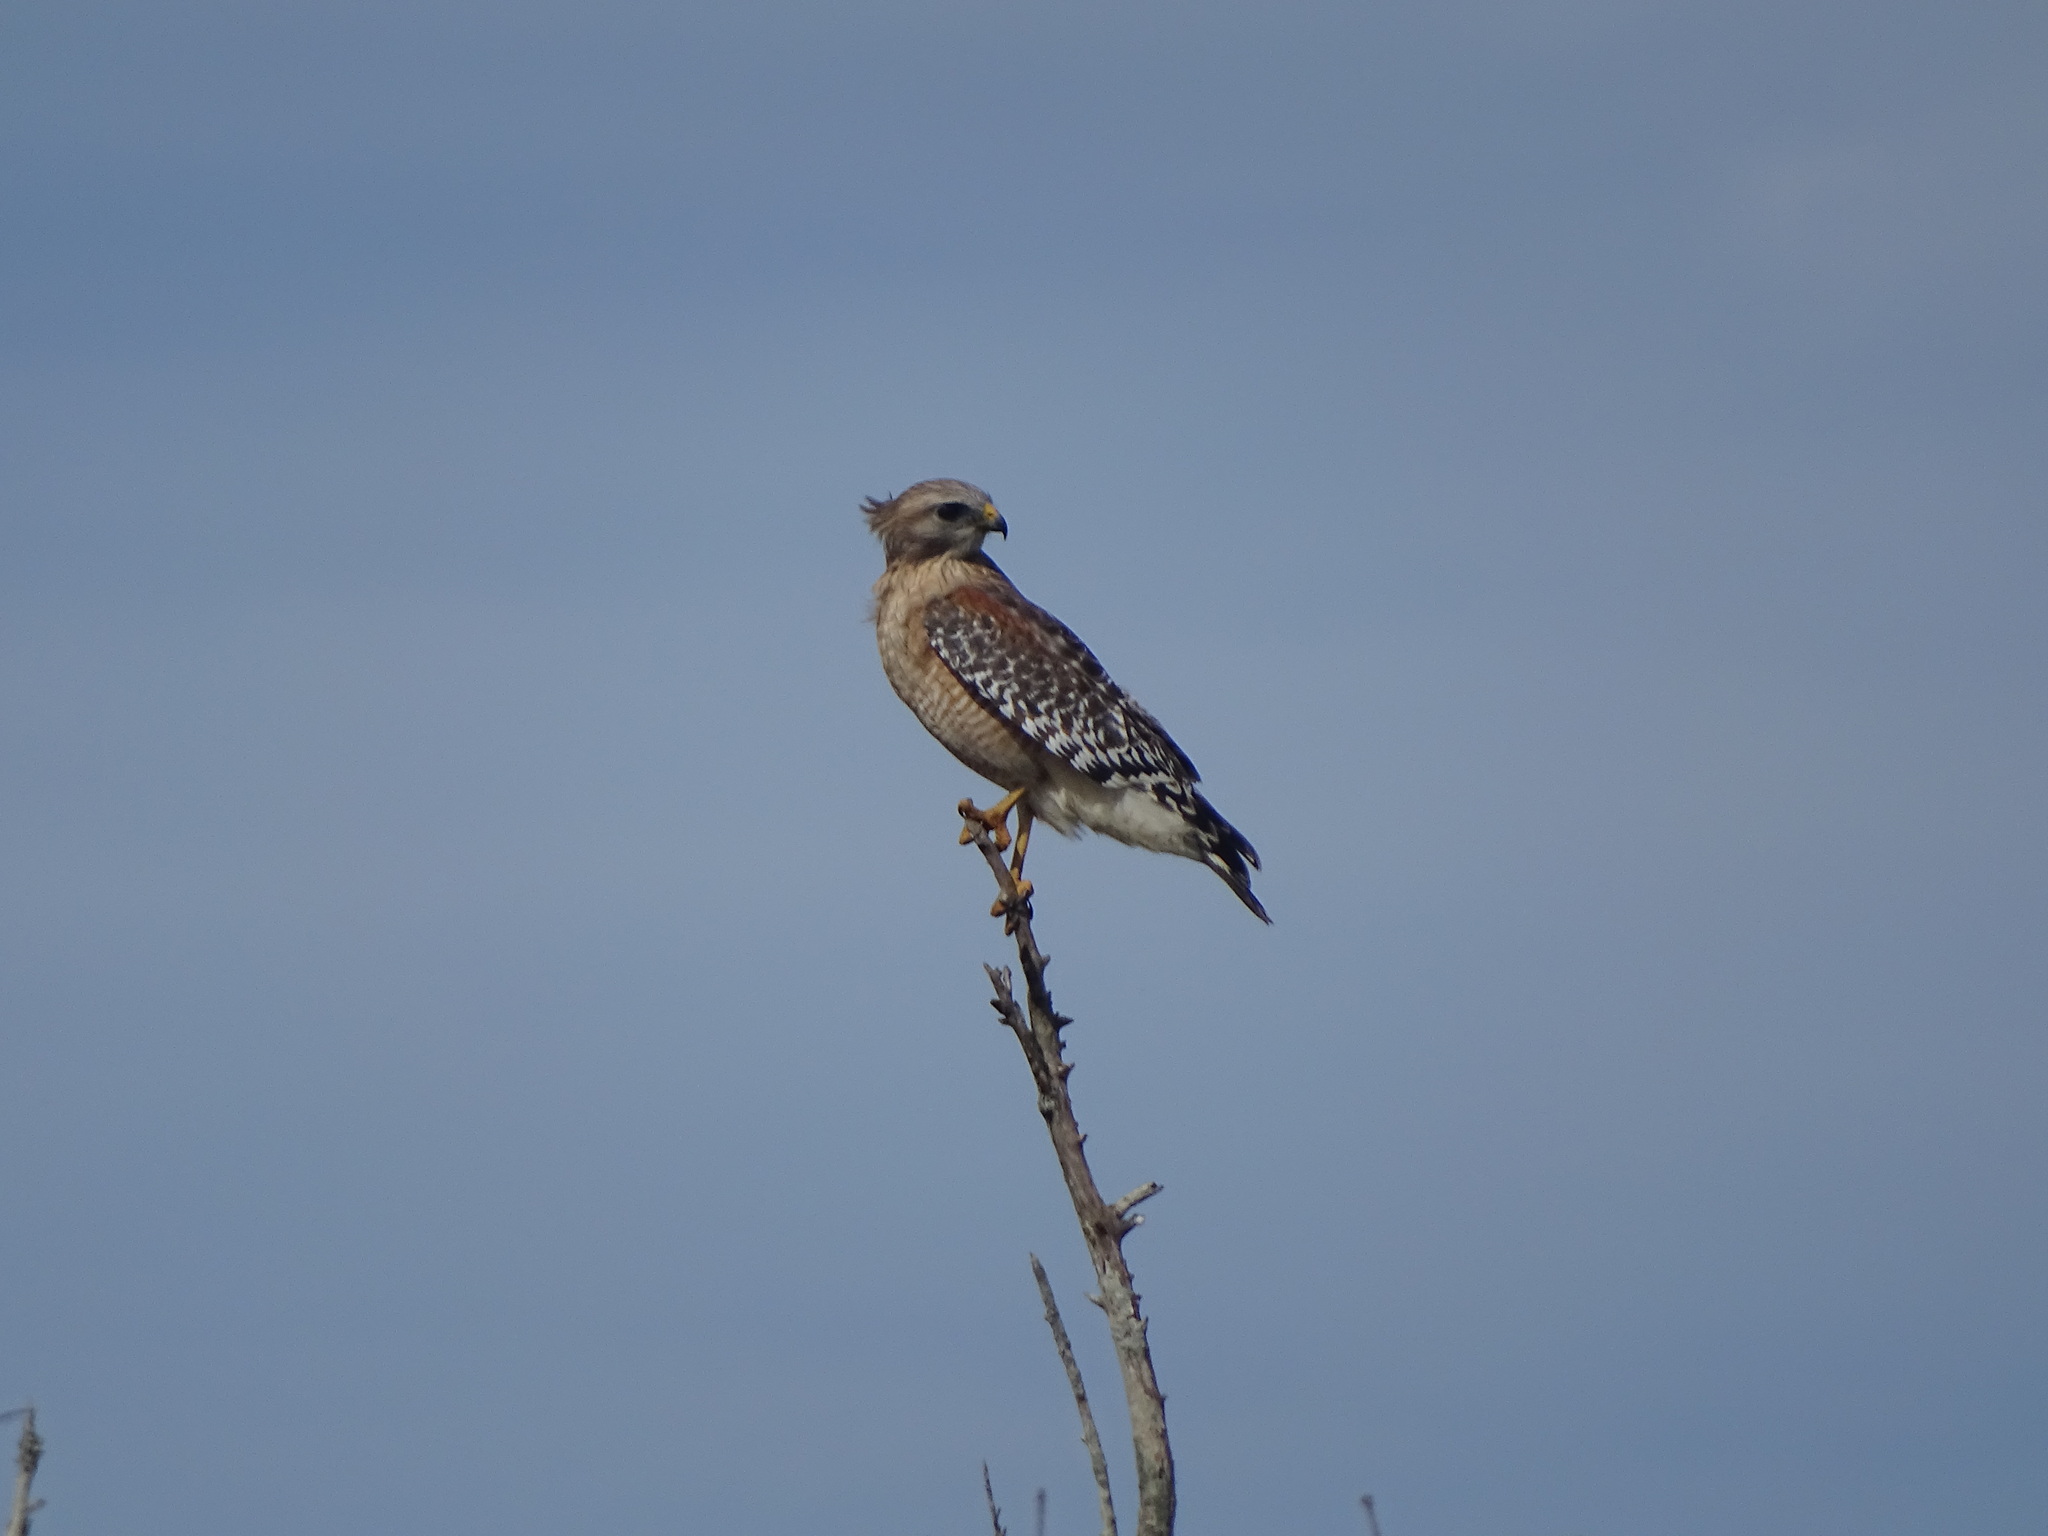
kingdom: Animalia
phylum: Chordata
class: Aves
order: Accipitriformes
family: Accipitridae
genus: Buteo
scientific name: Buteo lineatus
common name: Red-shouldered hawk
